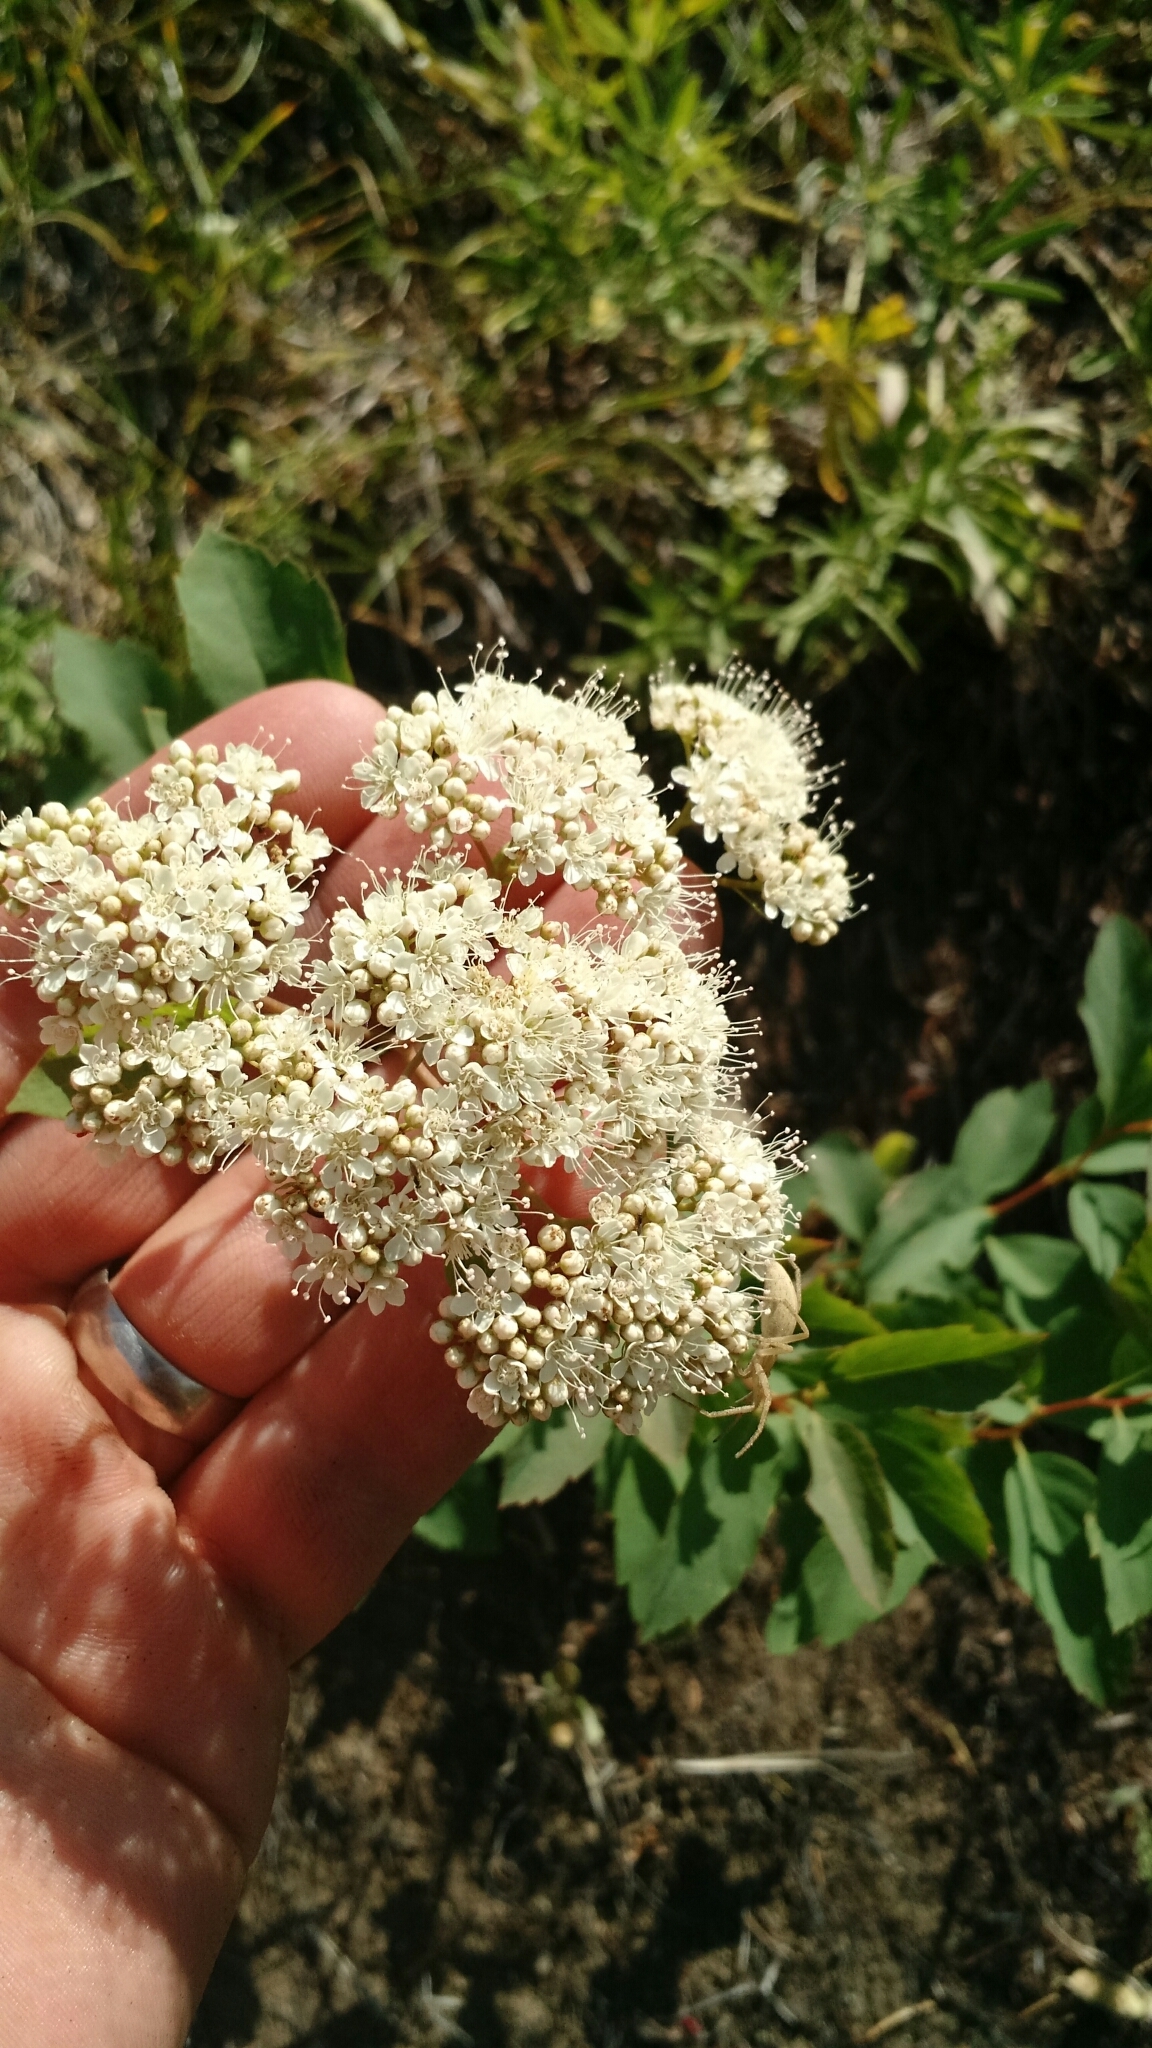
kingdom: Plantae
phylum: Tracheophyta
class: Magnoliopsida
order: Rosales
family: Rosaceae
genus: Spiraea
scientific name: Spiraea lucida
